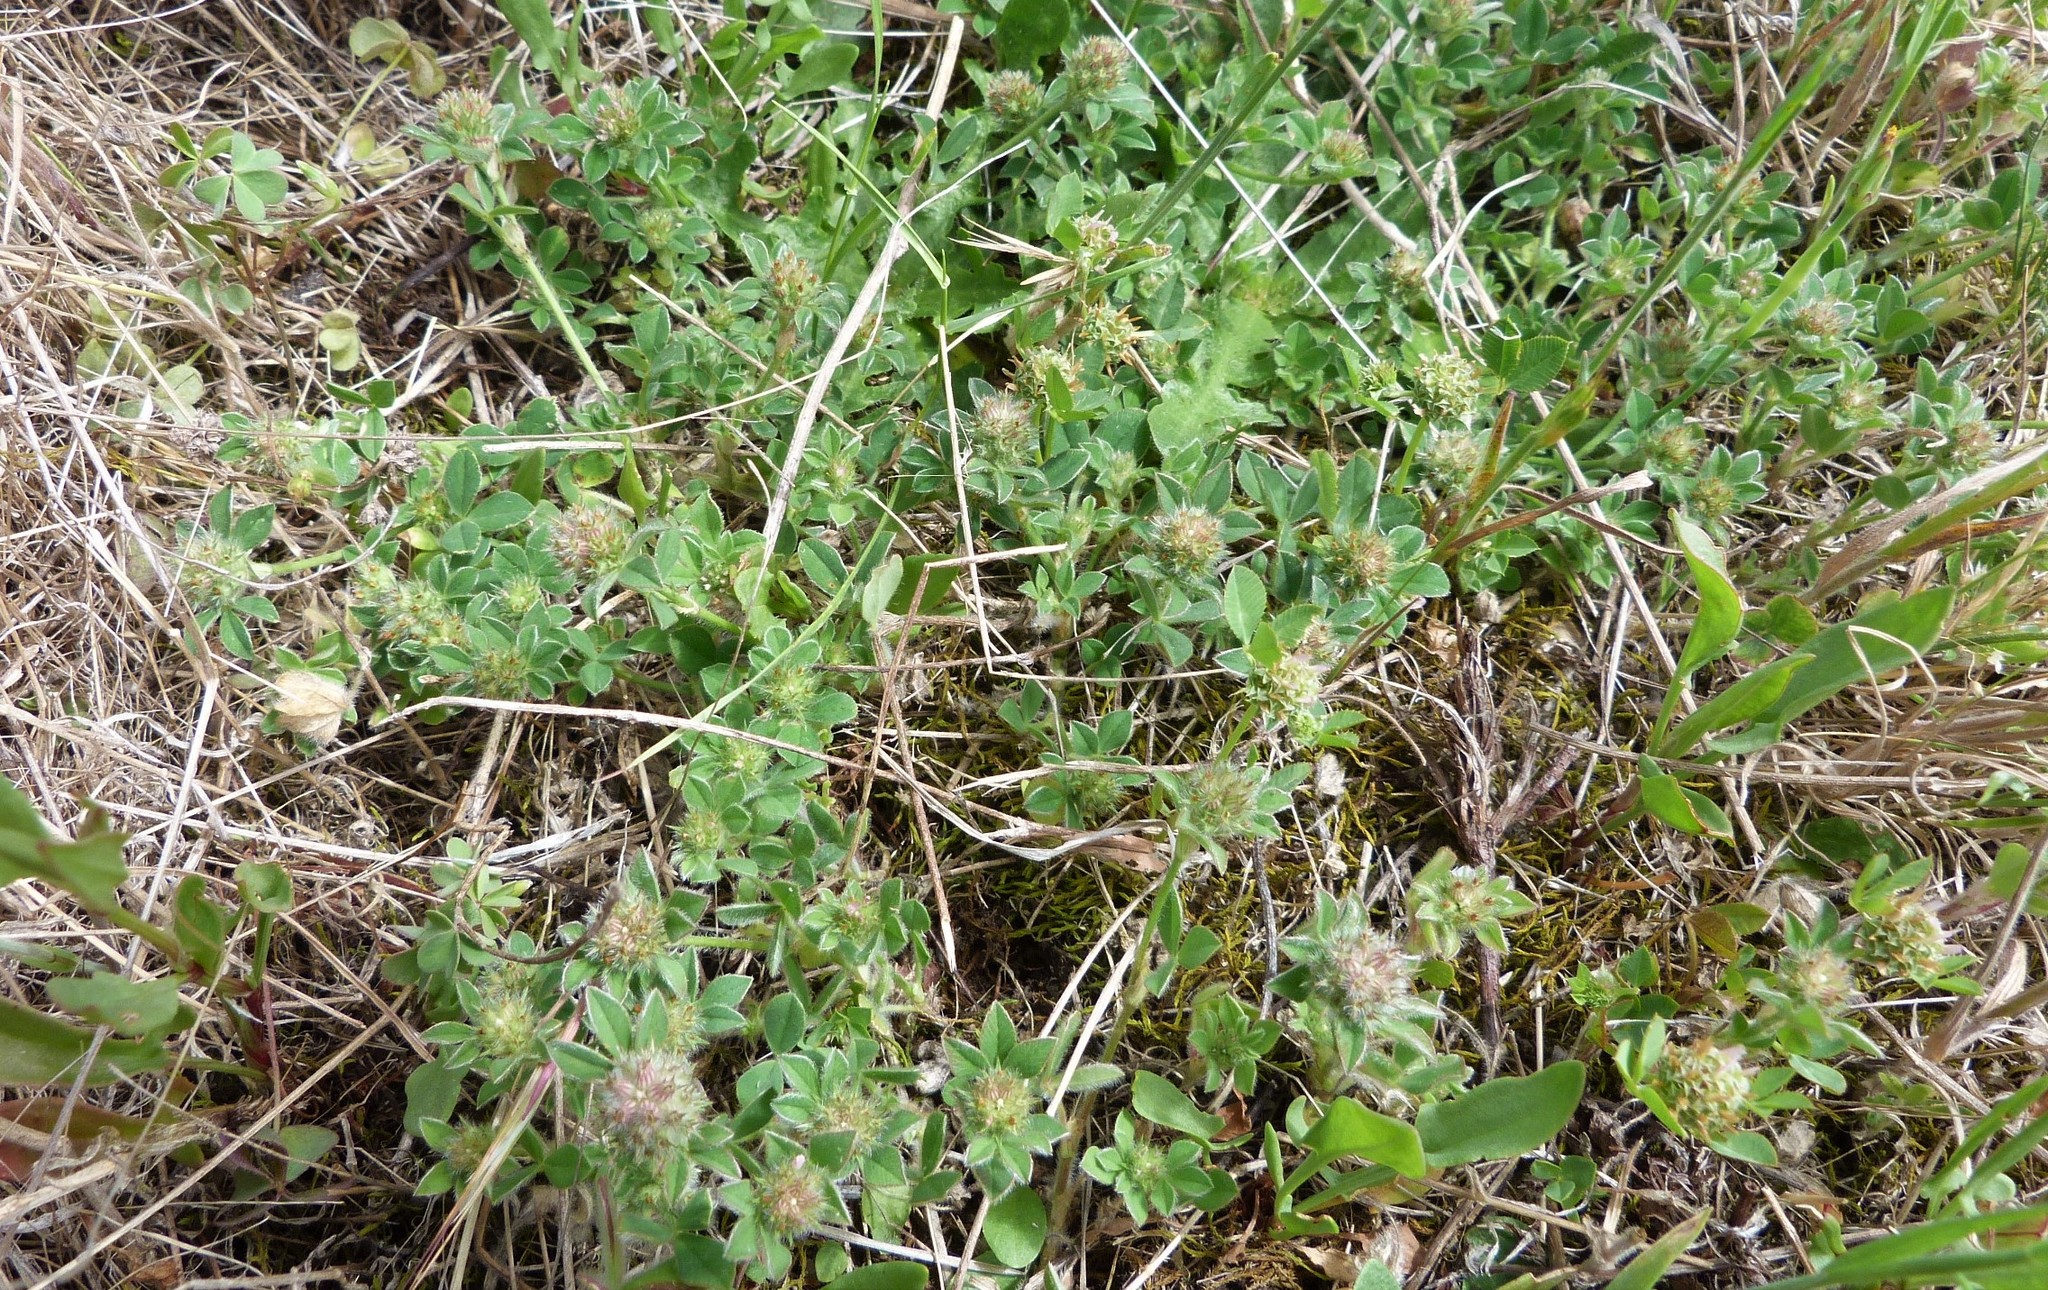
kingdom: Plantae
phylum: Tracheophyta
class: Magnoliopsida
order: Fabales
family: Fabaceae
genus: Trifolium
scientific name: Trifolium glomeratum
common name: Clustered clover
